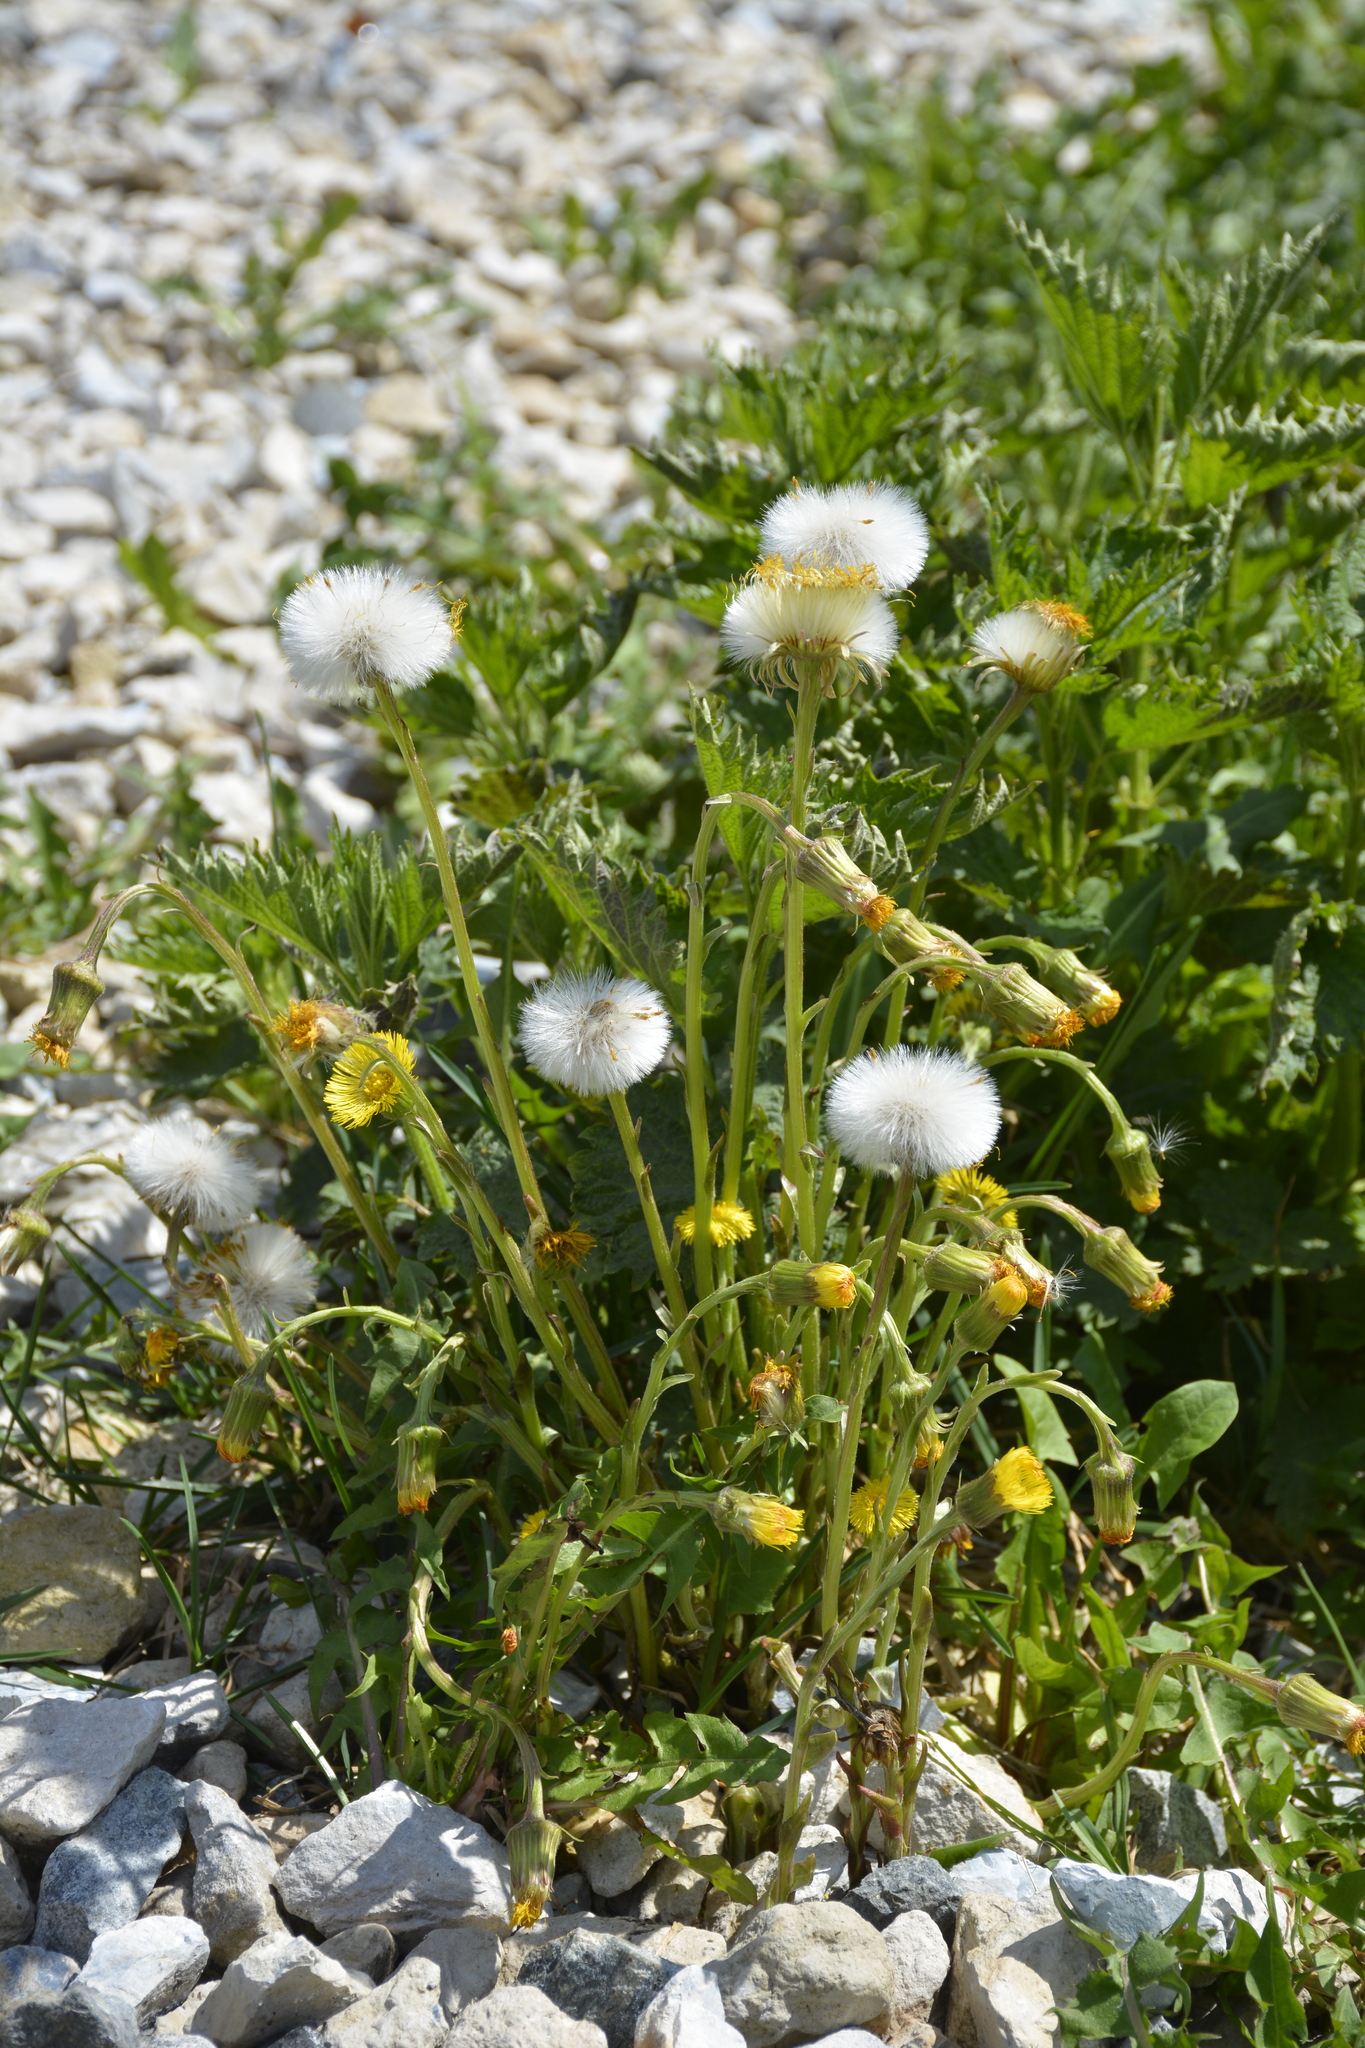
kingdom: Plantae
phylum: Tracheophyta
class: Magnoliopsida
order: Asterales
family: Asteraceae
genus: Tussilago
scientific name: Tussilago farfara
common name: Coltsfoot
